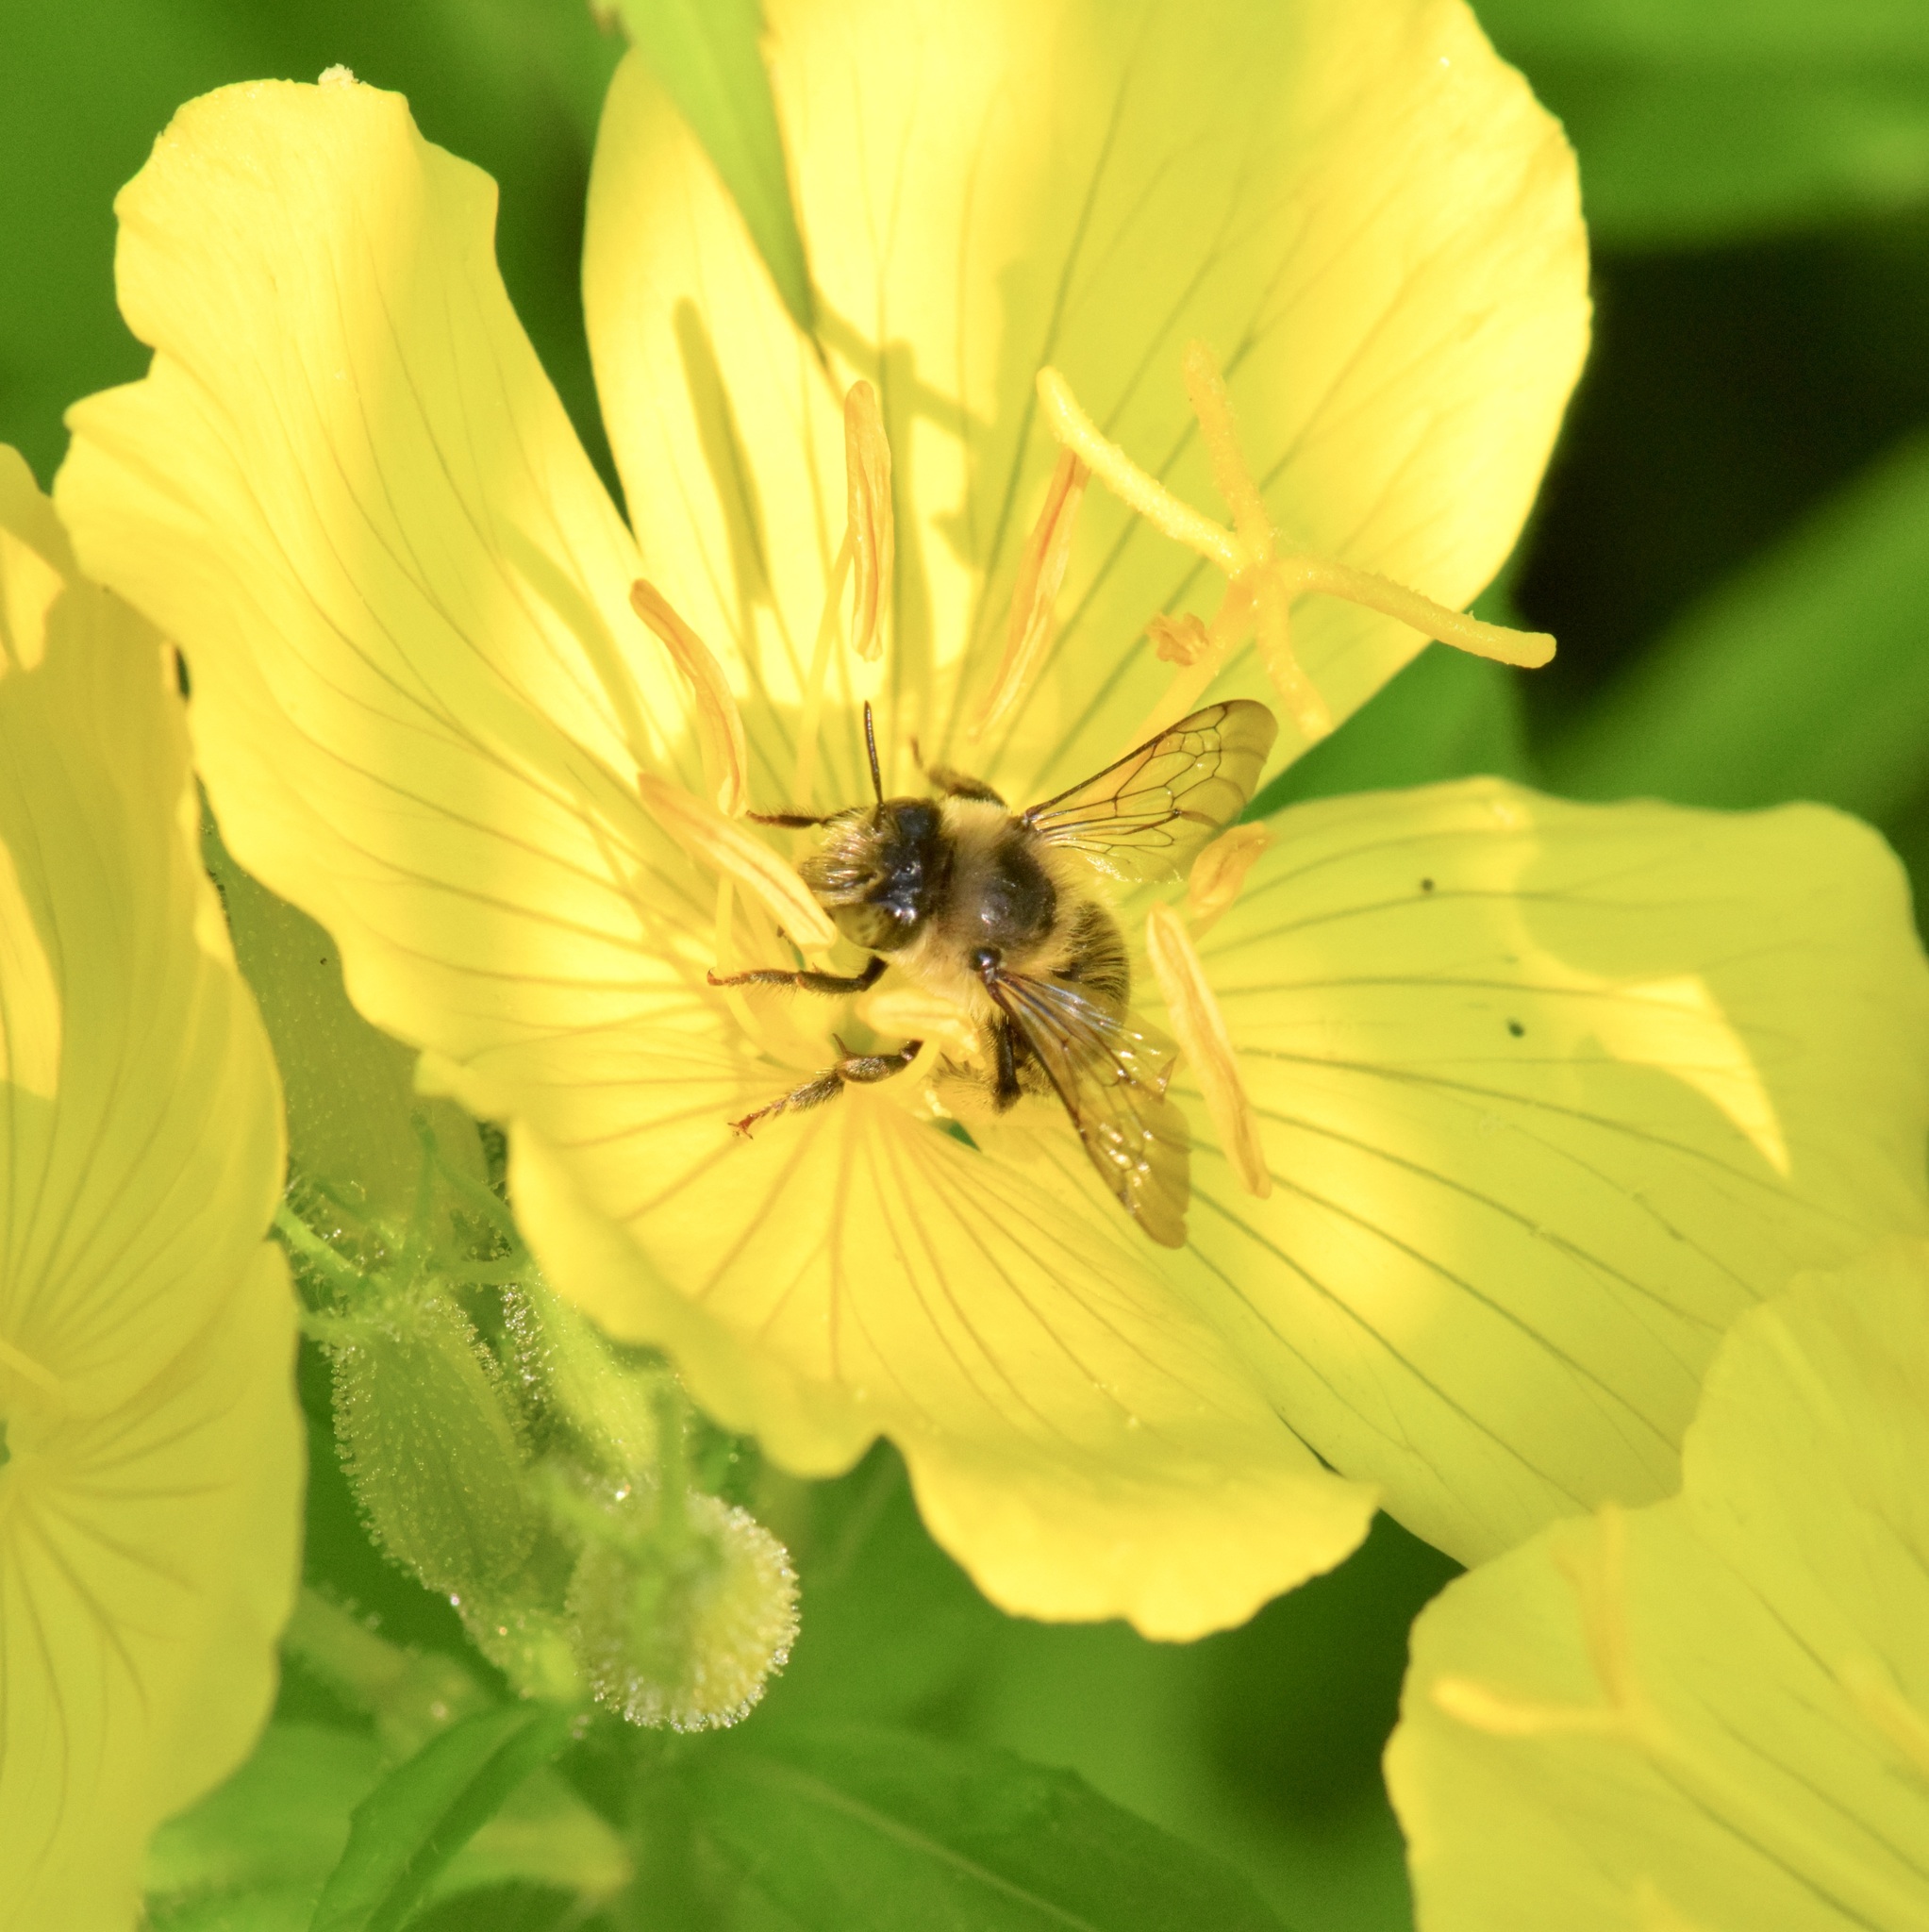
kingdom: Animalia
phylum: Arthropoda
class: Insecta
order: Hymenoptera
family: Apidae
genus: Anthophora
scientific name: Anthophora terminalis
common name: Orange-tipped wood-digger bee
